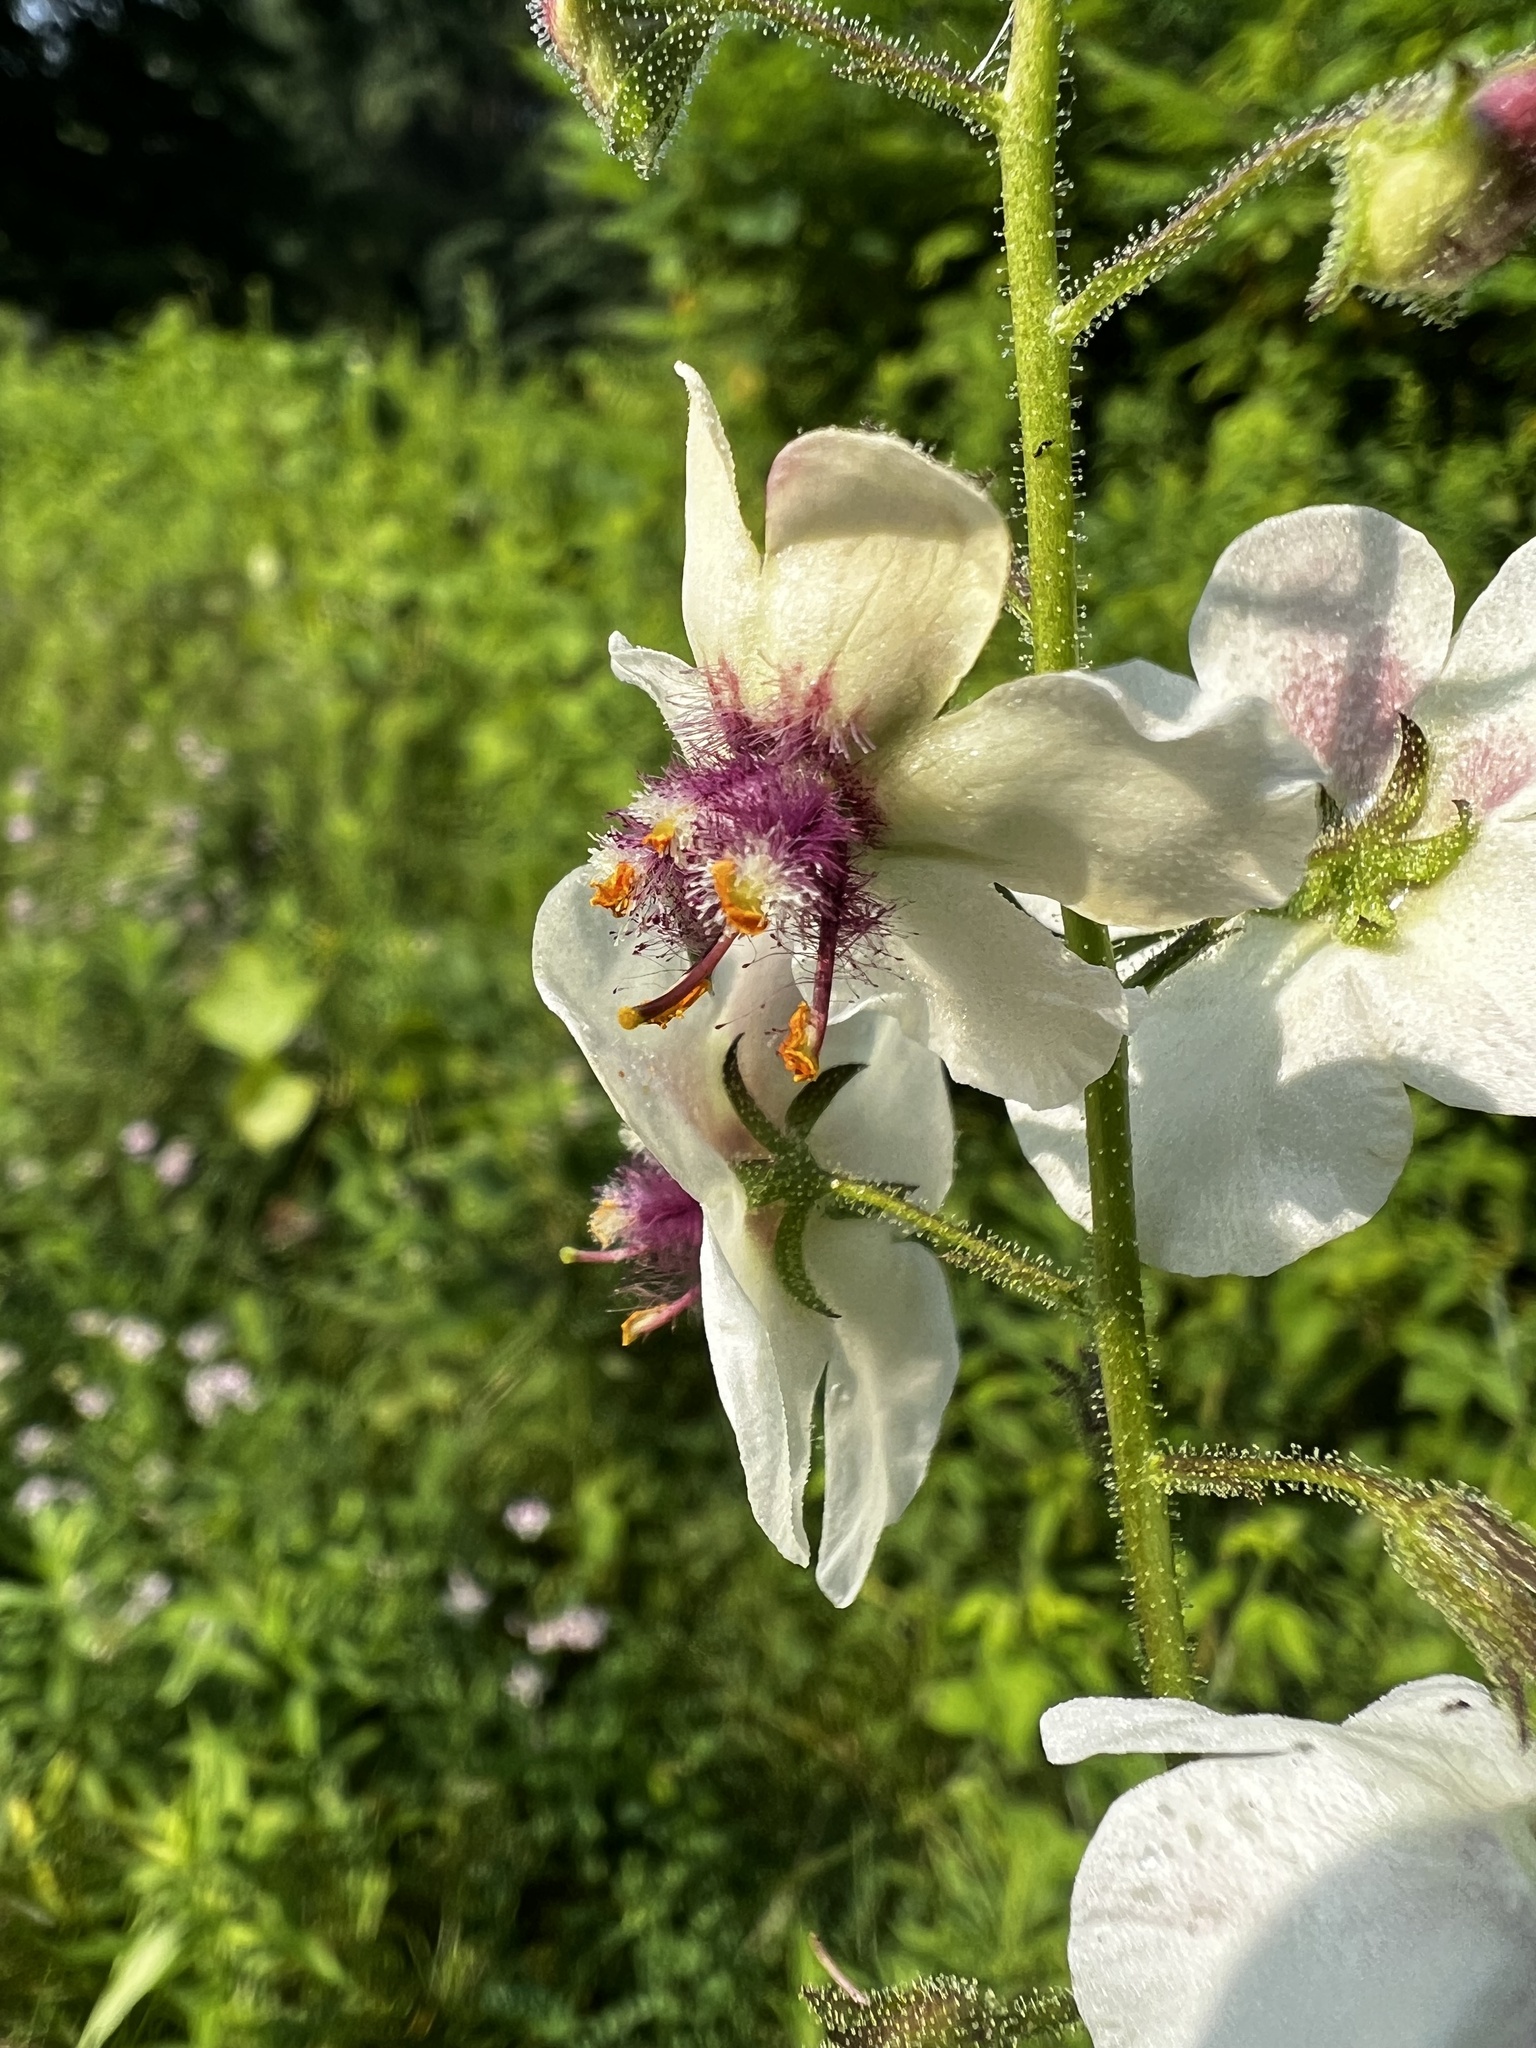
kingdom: Plantae
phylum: Tracheophyta
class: Magnoliopsida
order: Lamiales
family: Scrophulariaceae
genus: Verbascum
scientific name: Verbascum blattaria
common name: Moth mullein
